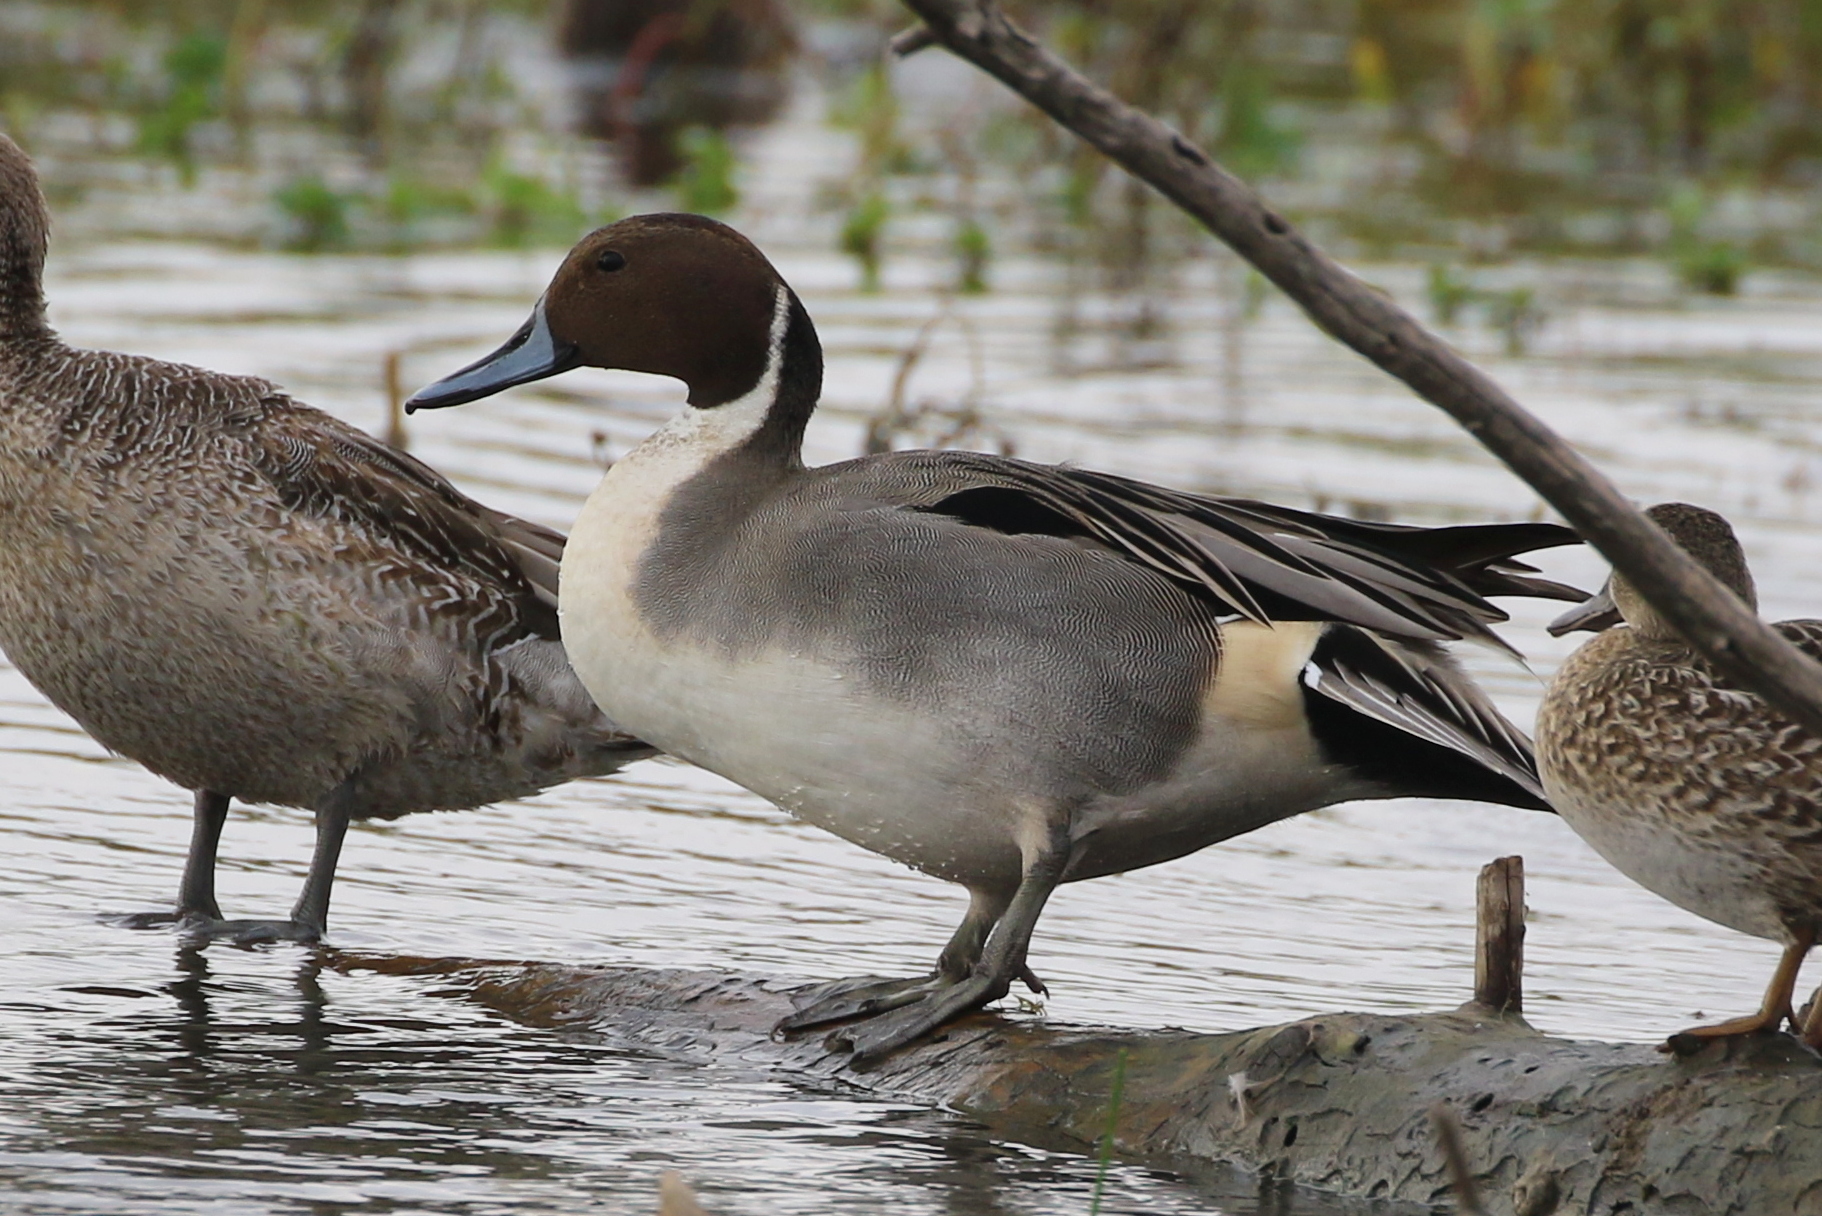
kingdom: Animalia
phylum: Chordata
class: Aves
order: Anseriformes
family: Anatidae
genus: Anas
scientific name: Anas acuta
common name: Northern pintail
